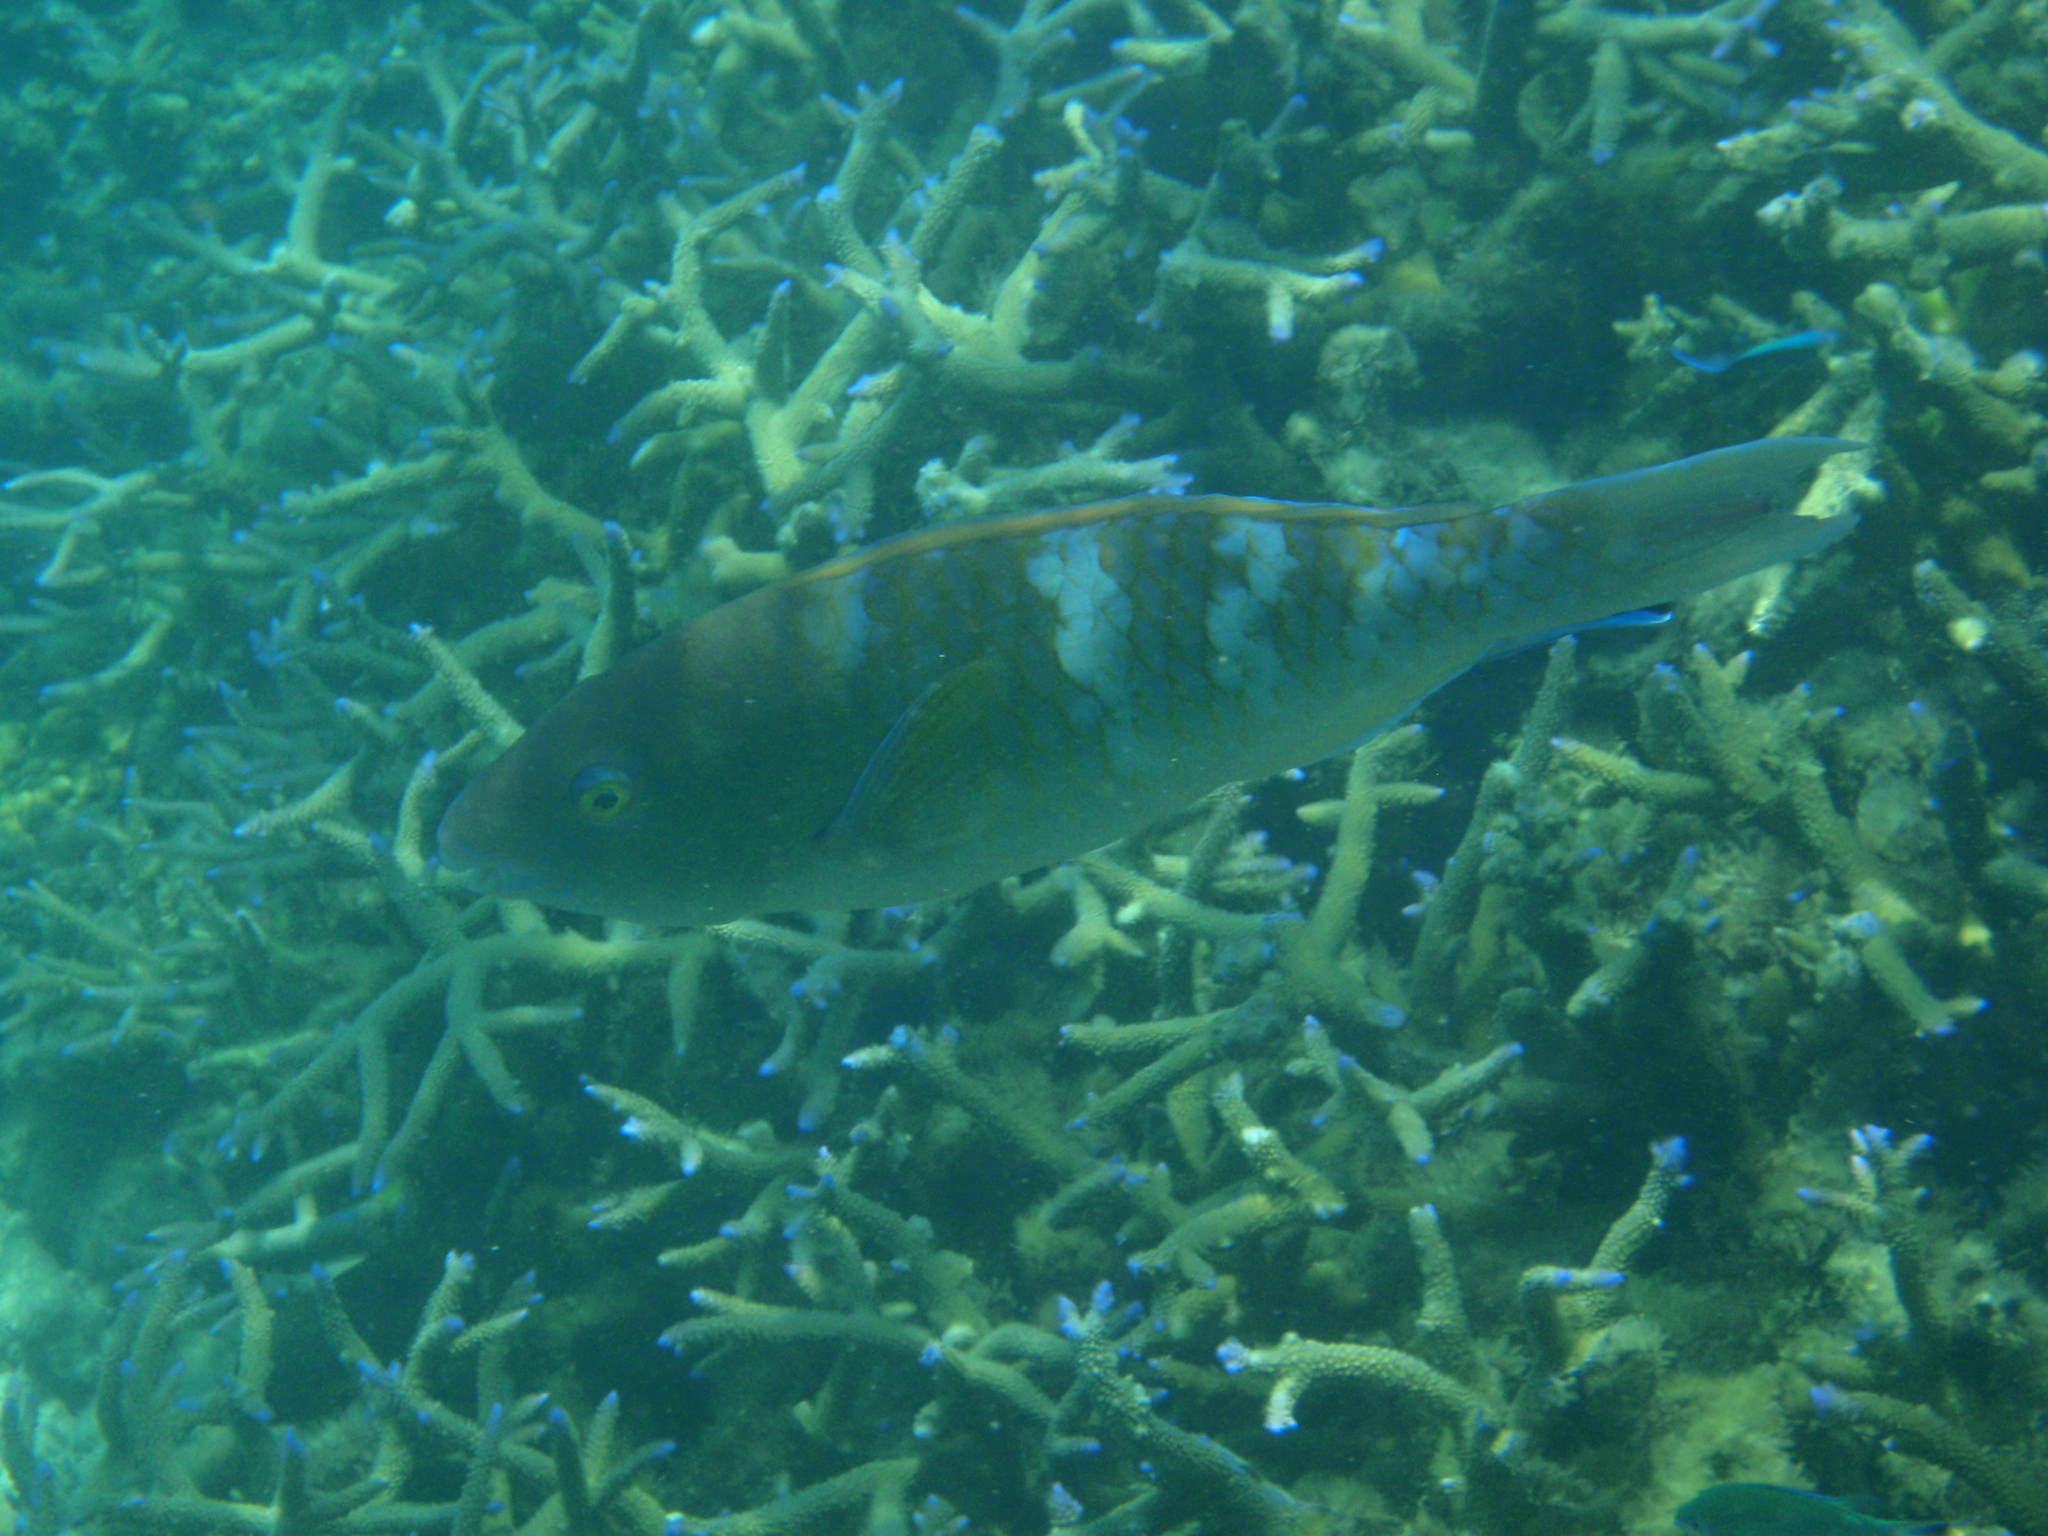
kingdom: Animalia
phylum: Chordata
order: Perciformes
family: Scaridae
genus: Scarus
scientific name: Scarus ghobban
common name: Blue-barred parrotfish
